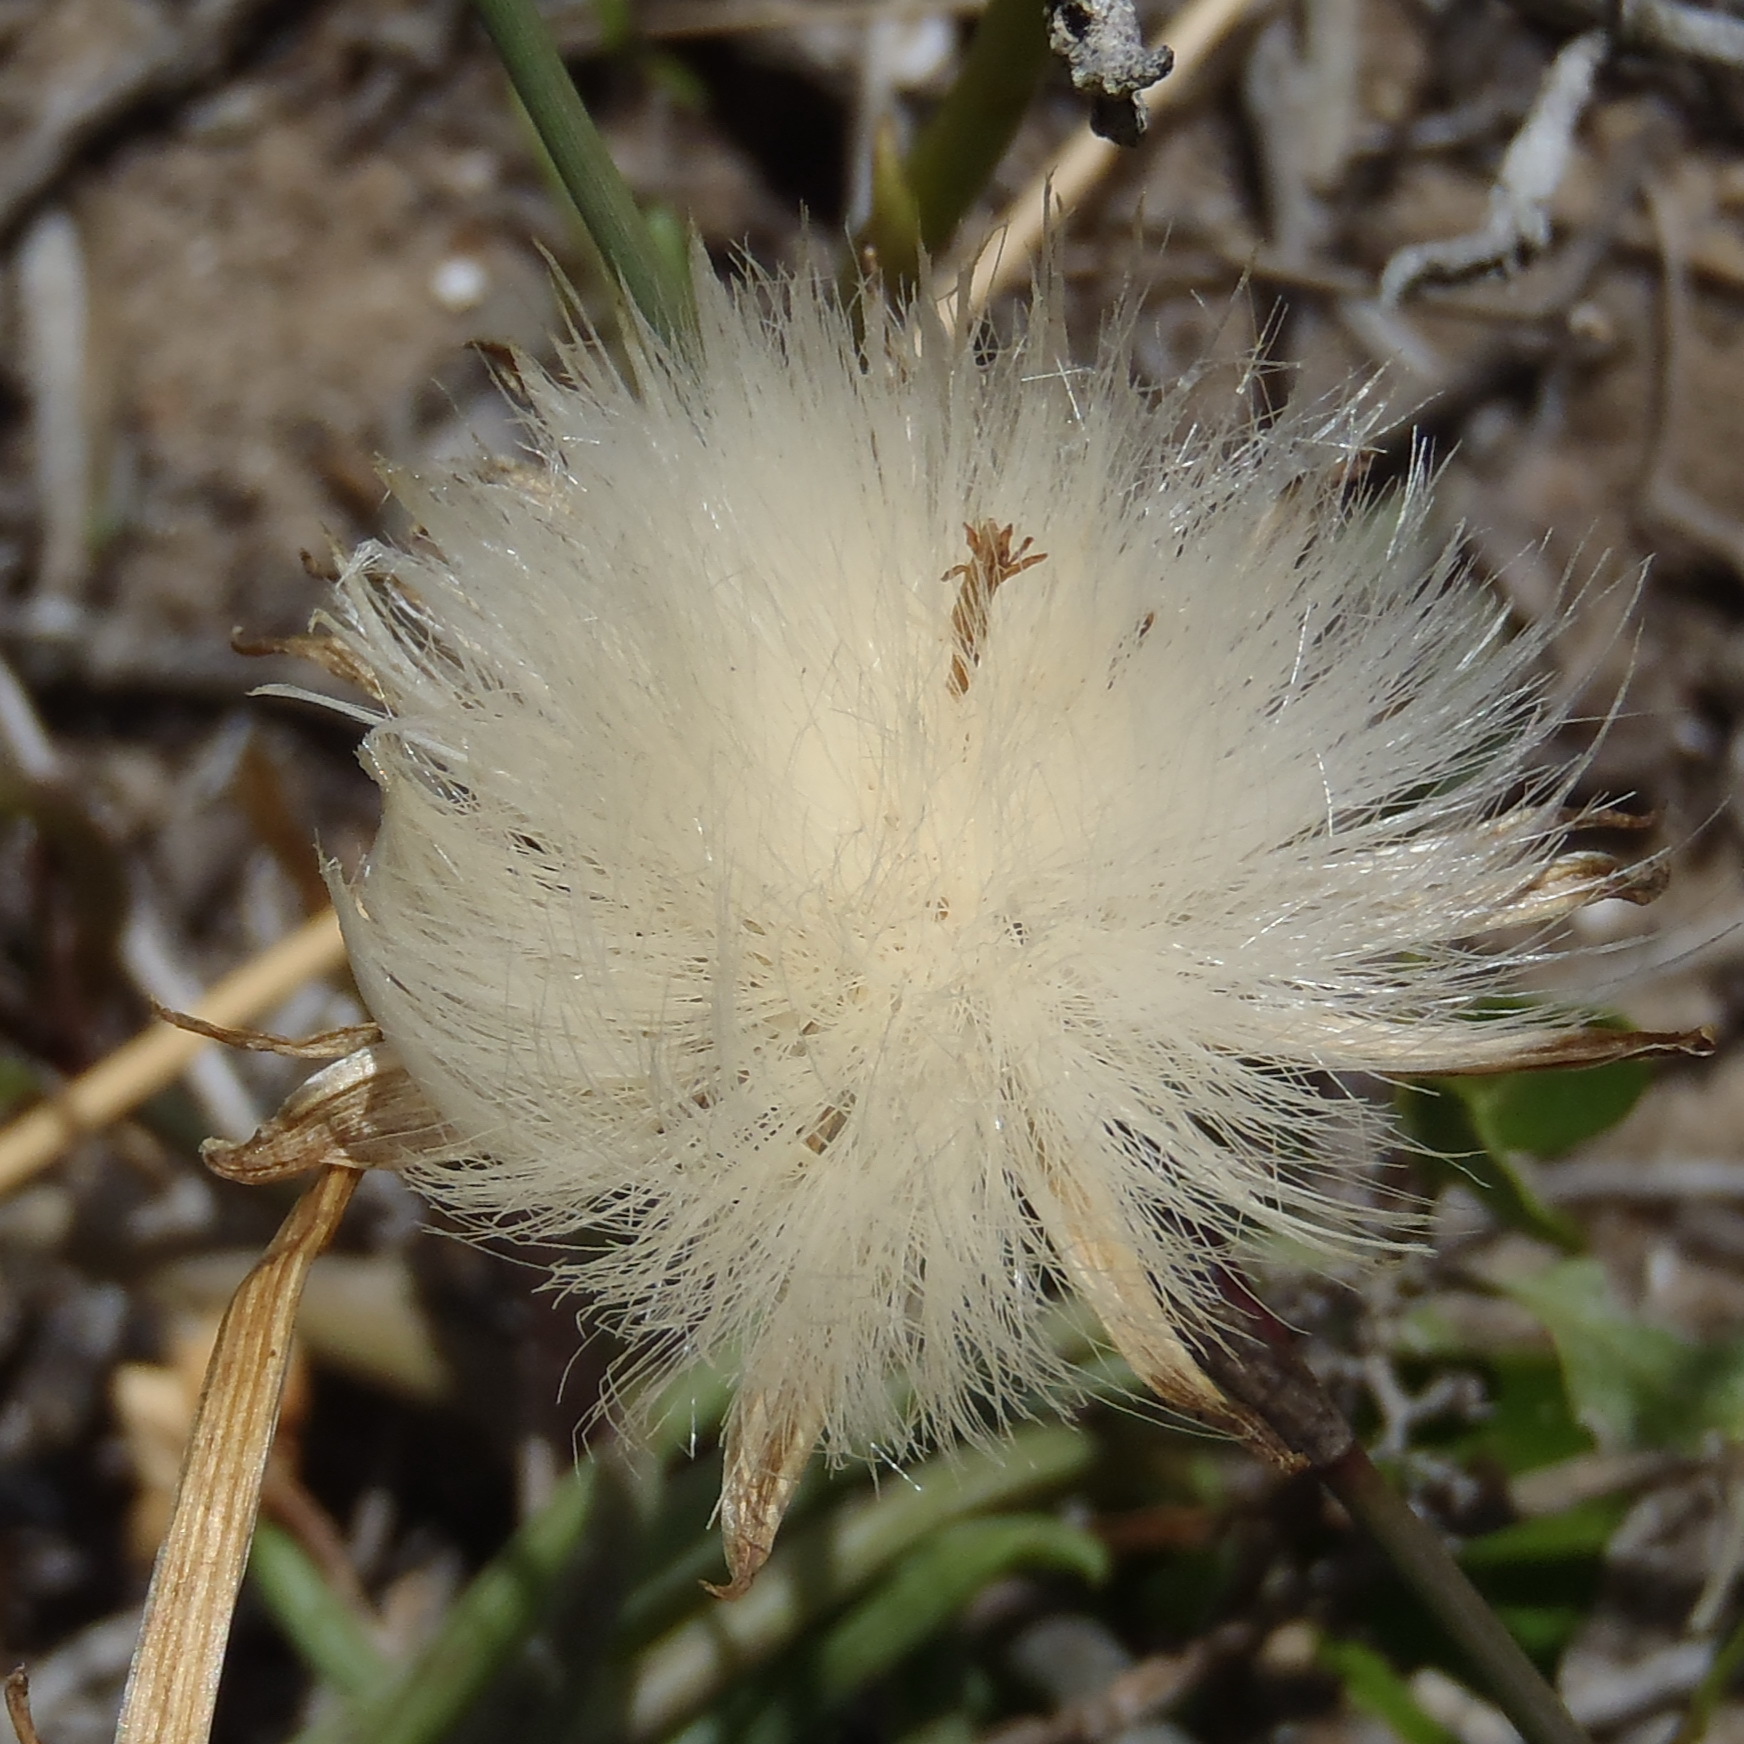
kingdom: Plantae
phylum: Tracheophyta
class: Magnoliopsida
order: Asterales
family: Asteraceae
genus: Senecio
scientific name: Senecio alooides
